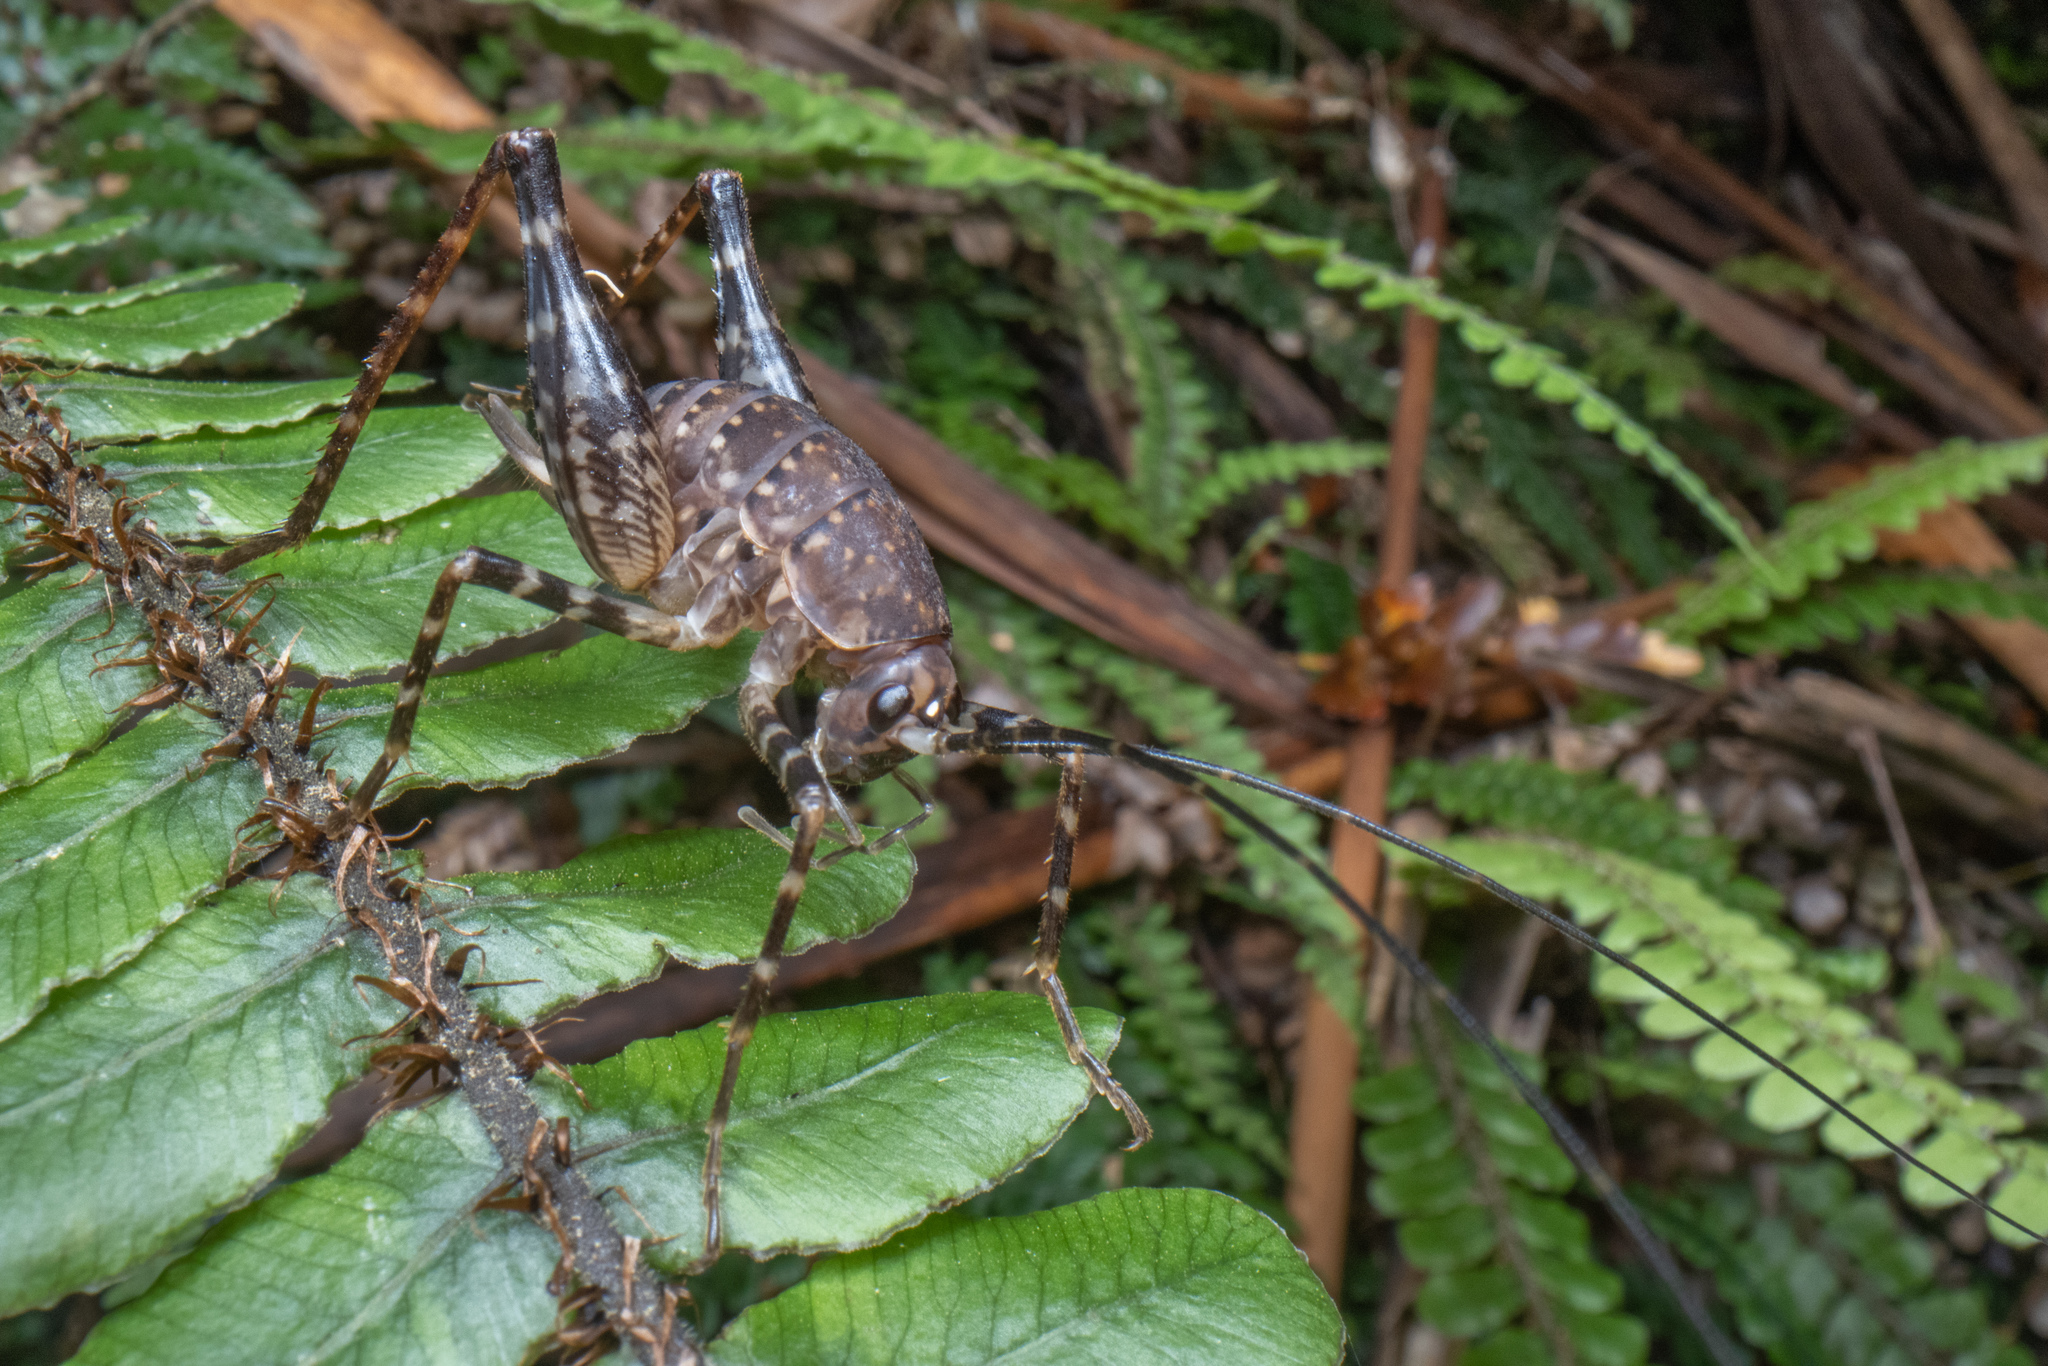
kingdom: Animalia
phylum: Arthropoda
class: Insecta
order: Orthoptera
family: Rhaphidophoridae
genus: Miotopus
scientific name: Miotopus diversus
